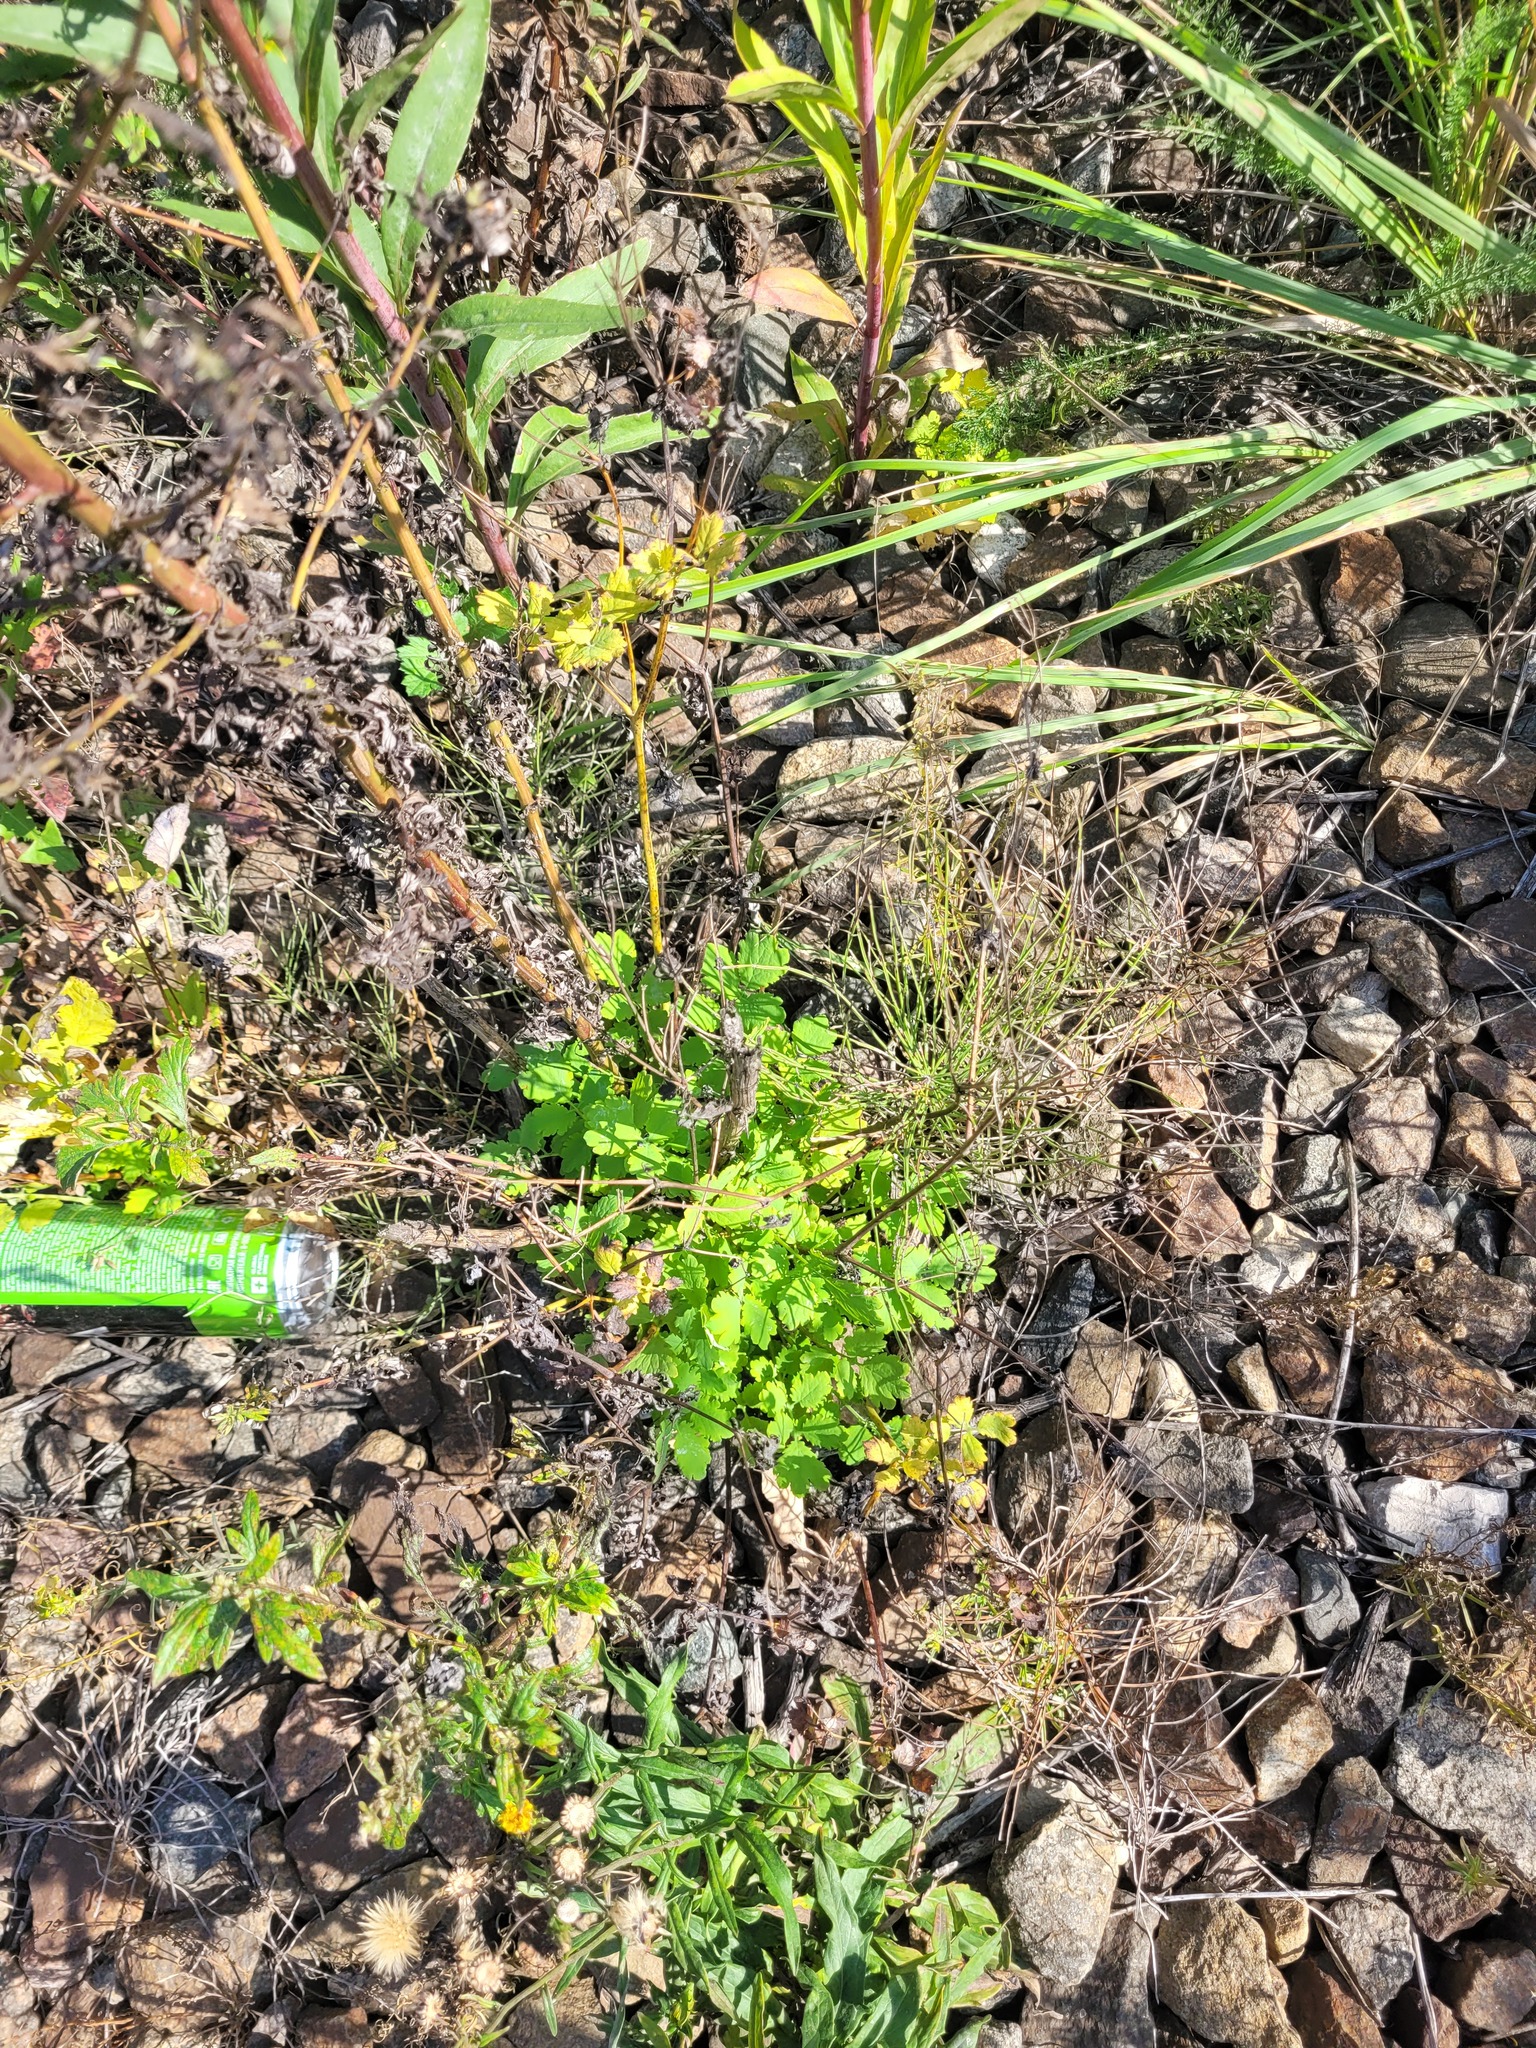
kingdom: Plantae
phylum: Tracheophyta
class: Magnoliopsida
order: Ranunculales
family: Papaveraceae
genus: Chelidonium
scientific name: Chelidonium majus
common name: Greater celandine
